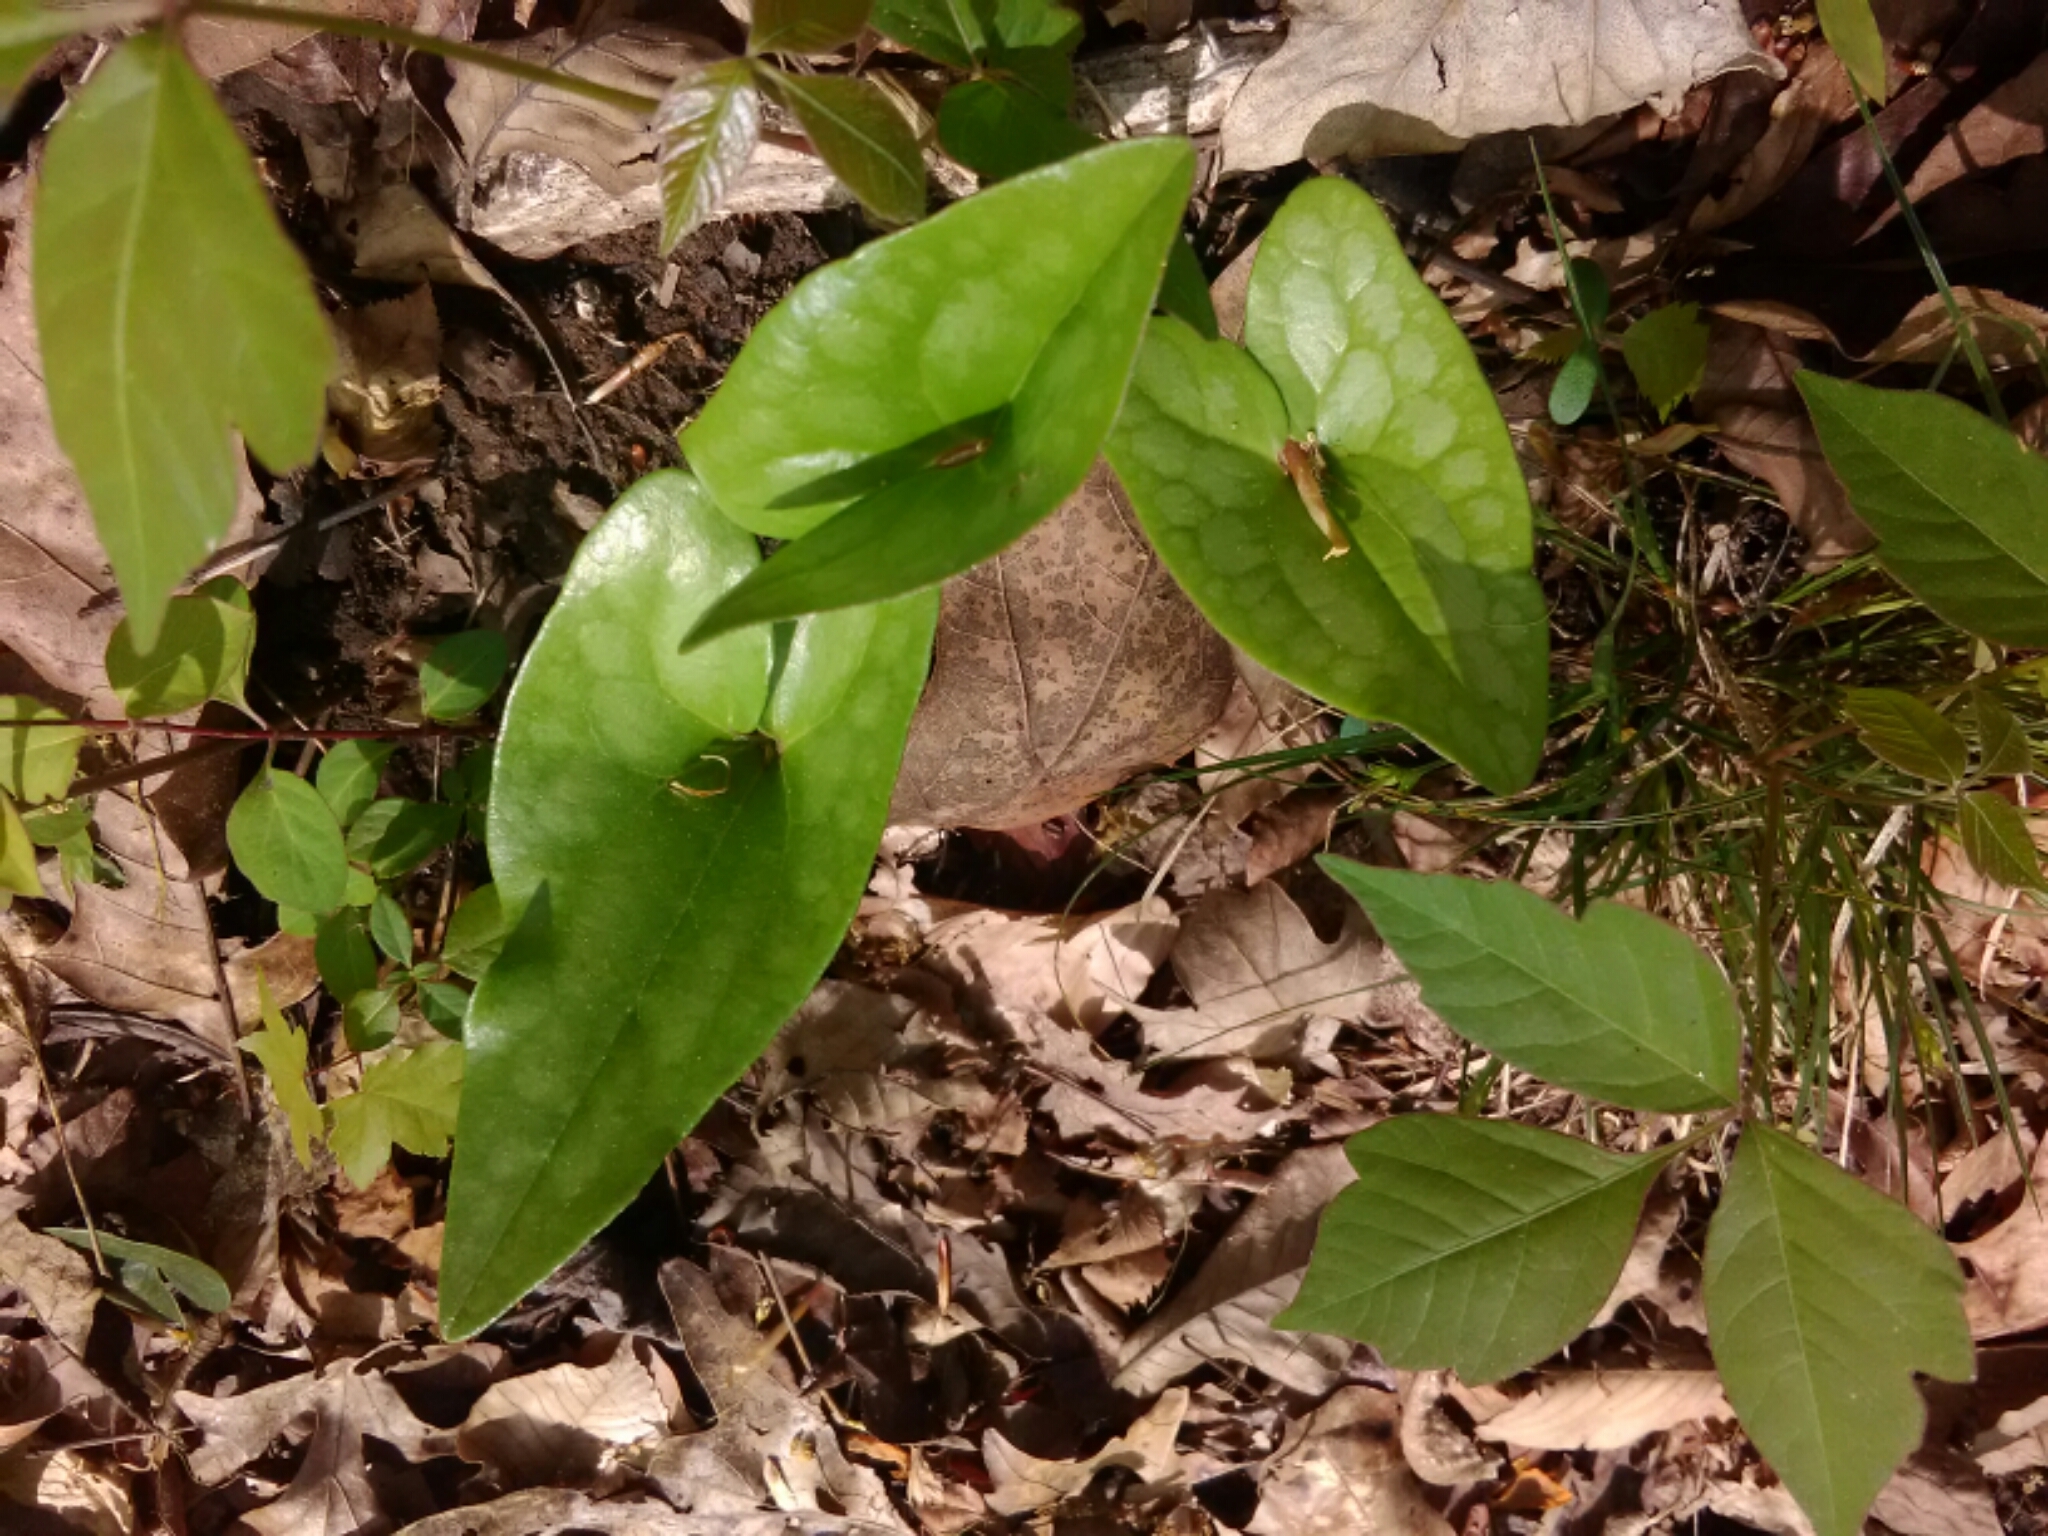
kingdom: Plantae
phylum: Tracheophyta
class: Magnoliopsida
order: Piperales
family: Aristolochiaceae
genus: Hexastylis
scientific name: Hexastylis arifolia
